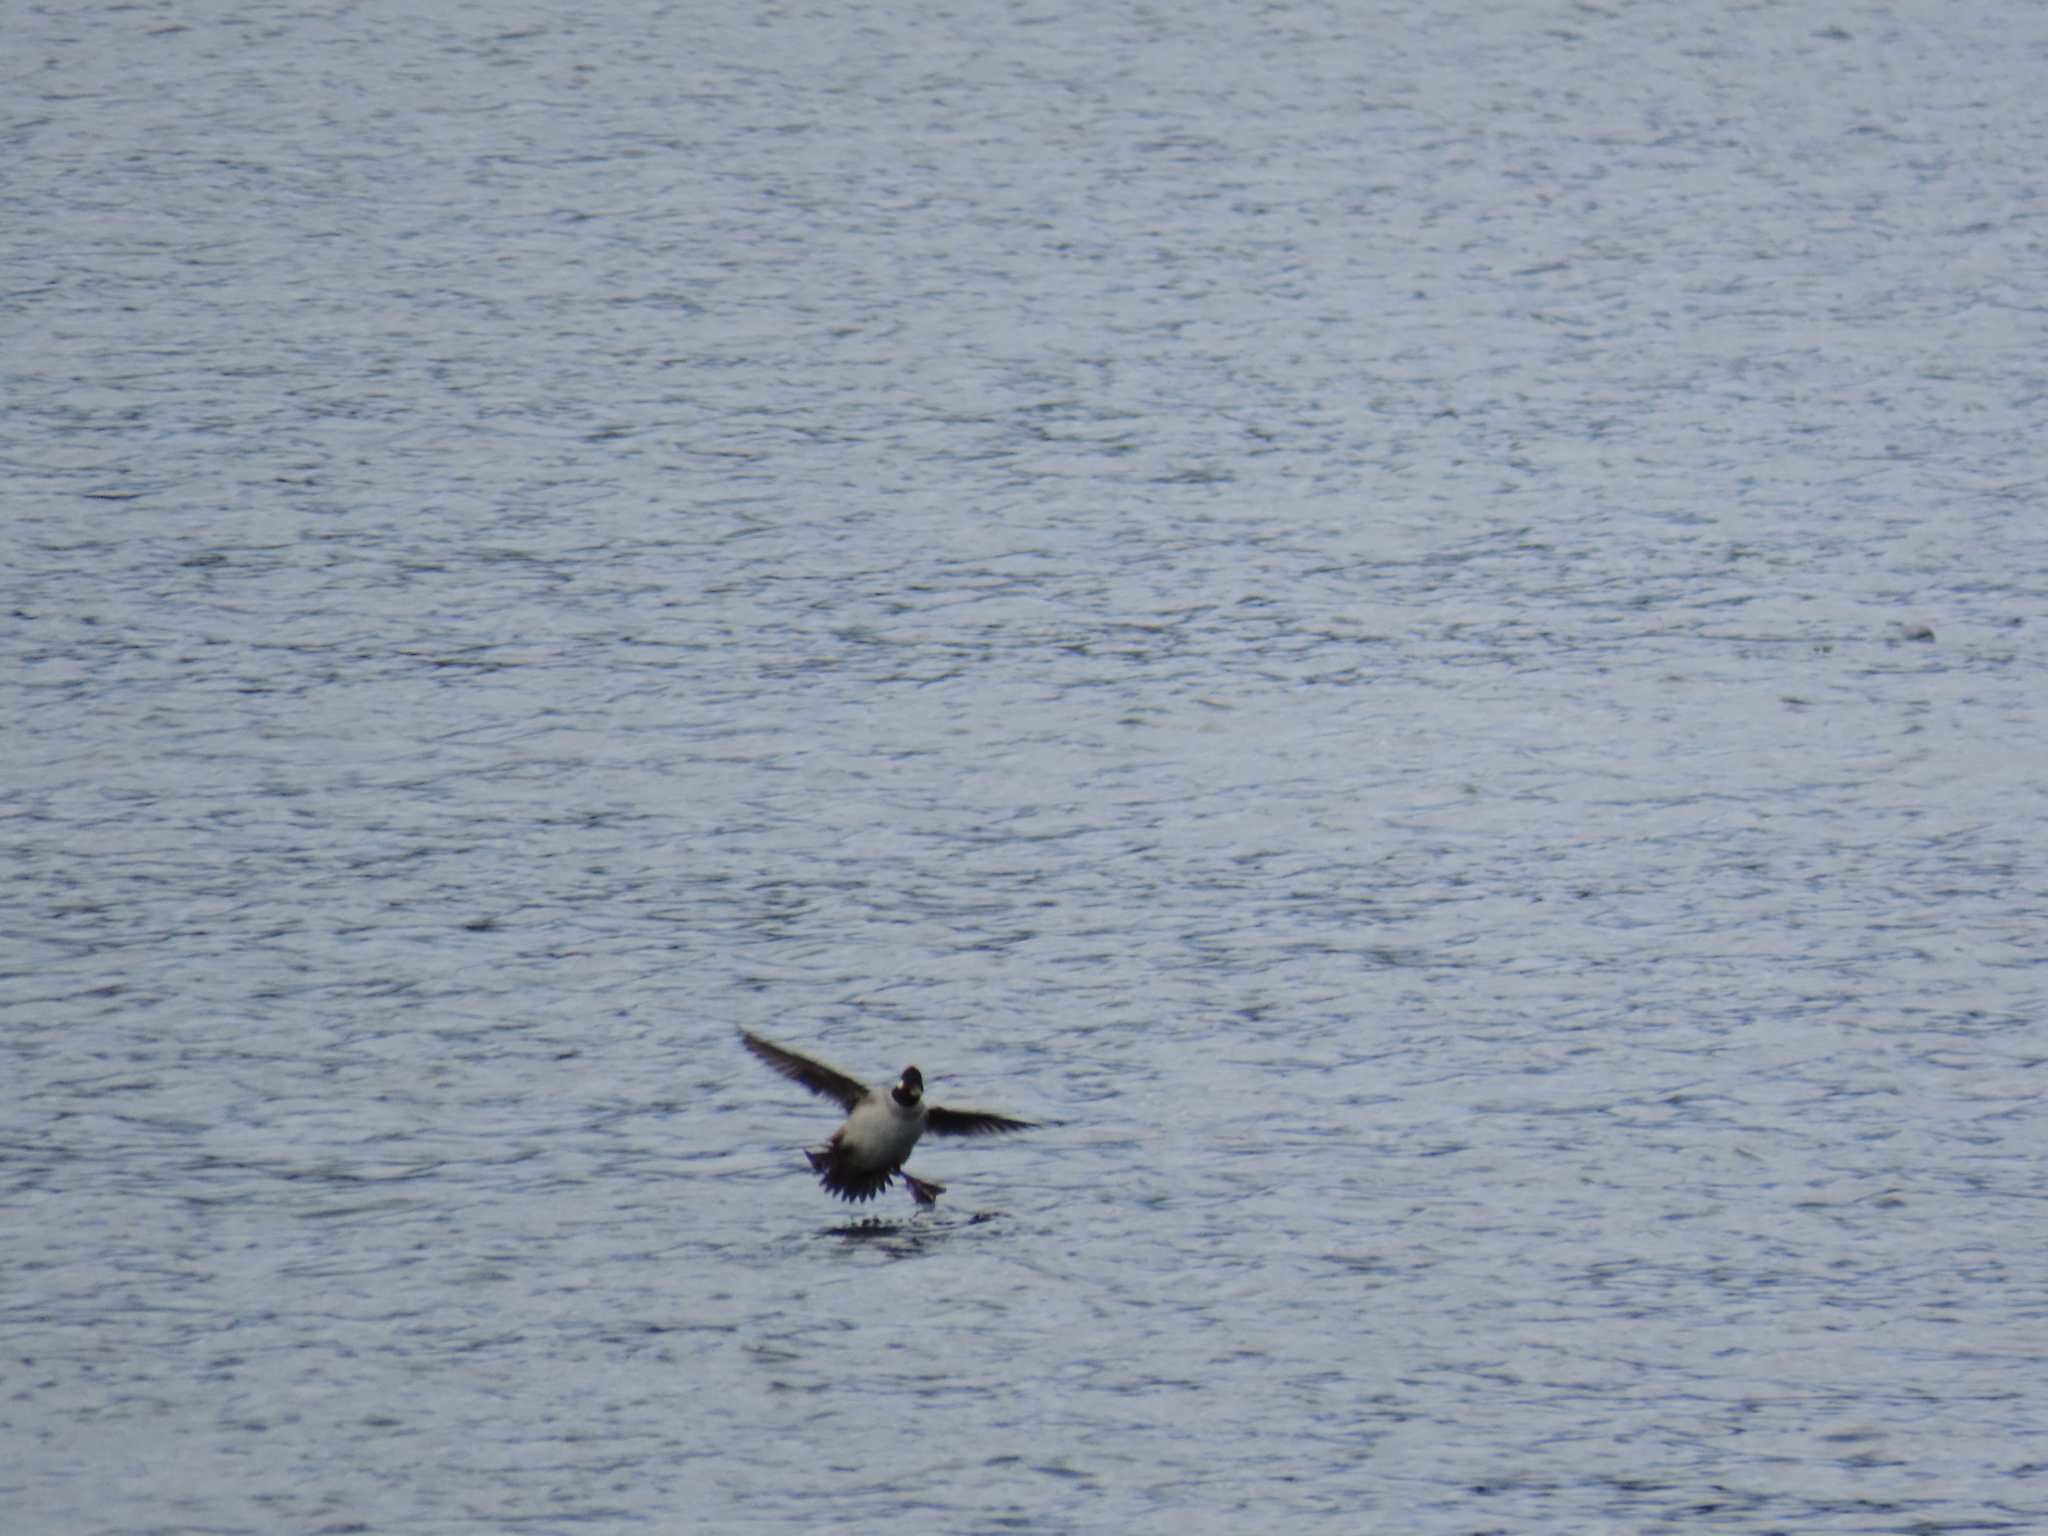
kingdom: Animalia
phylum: Chordata
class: Aves
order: Anseriformes
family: Anatidae
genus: Bucephala
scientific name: Bucephala albeola
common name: Bufflehead
